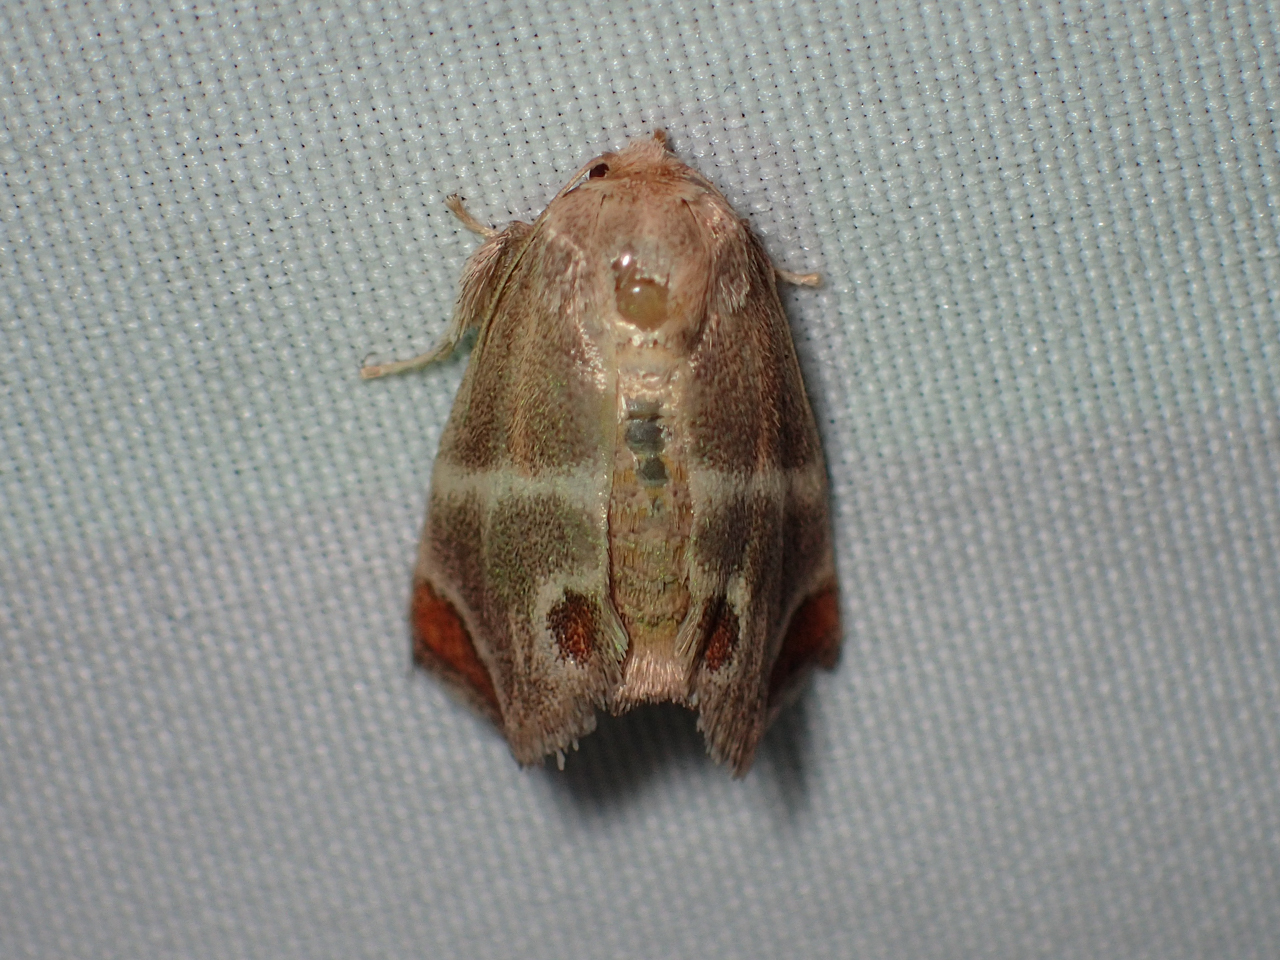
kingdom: Animalia
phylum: Arthropoda
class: Insecta
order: Lepidoptera
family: Limacodidae
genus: Apoda
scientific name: Apoda biguttata
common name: Shagreened slug moth
